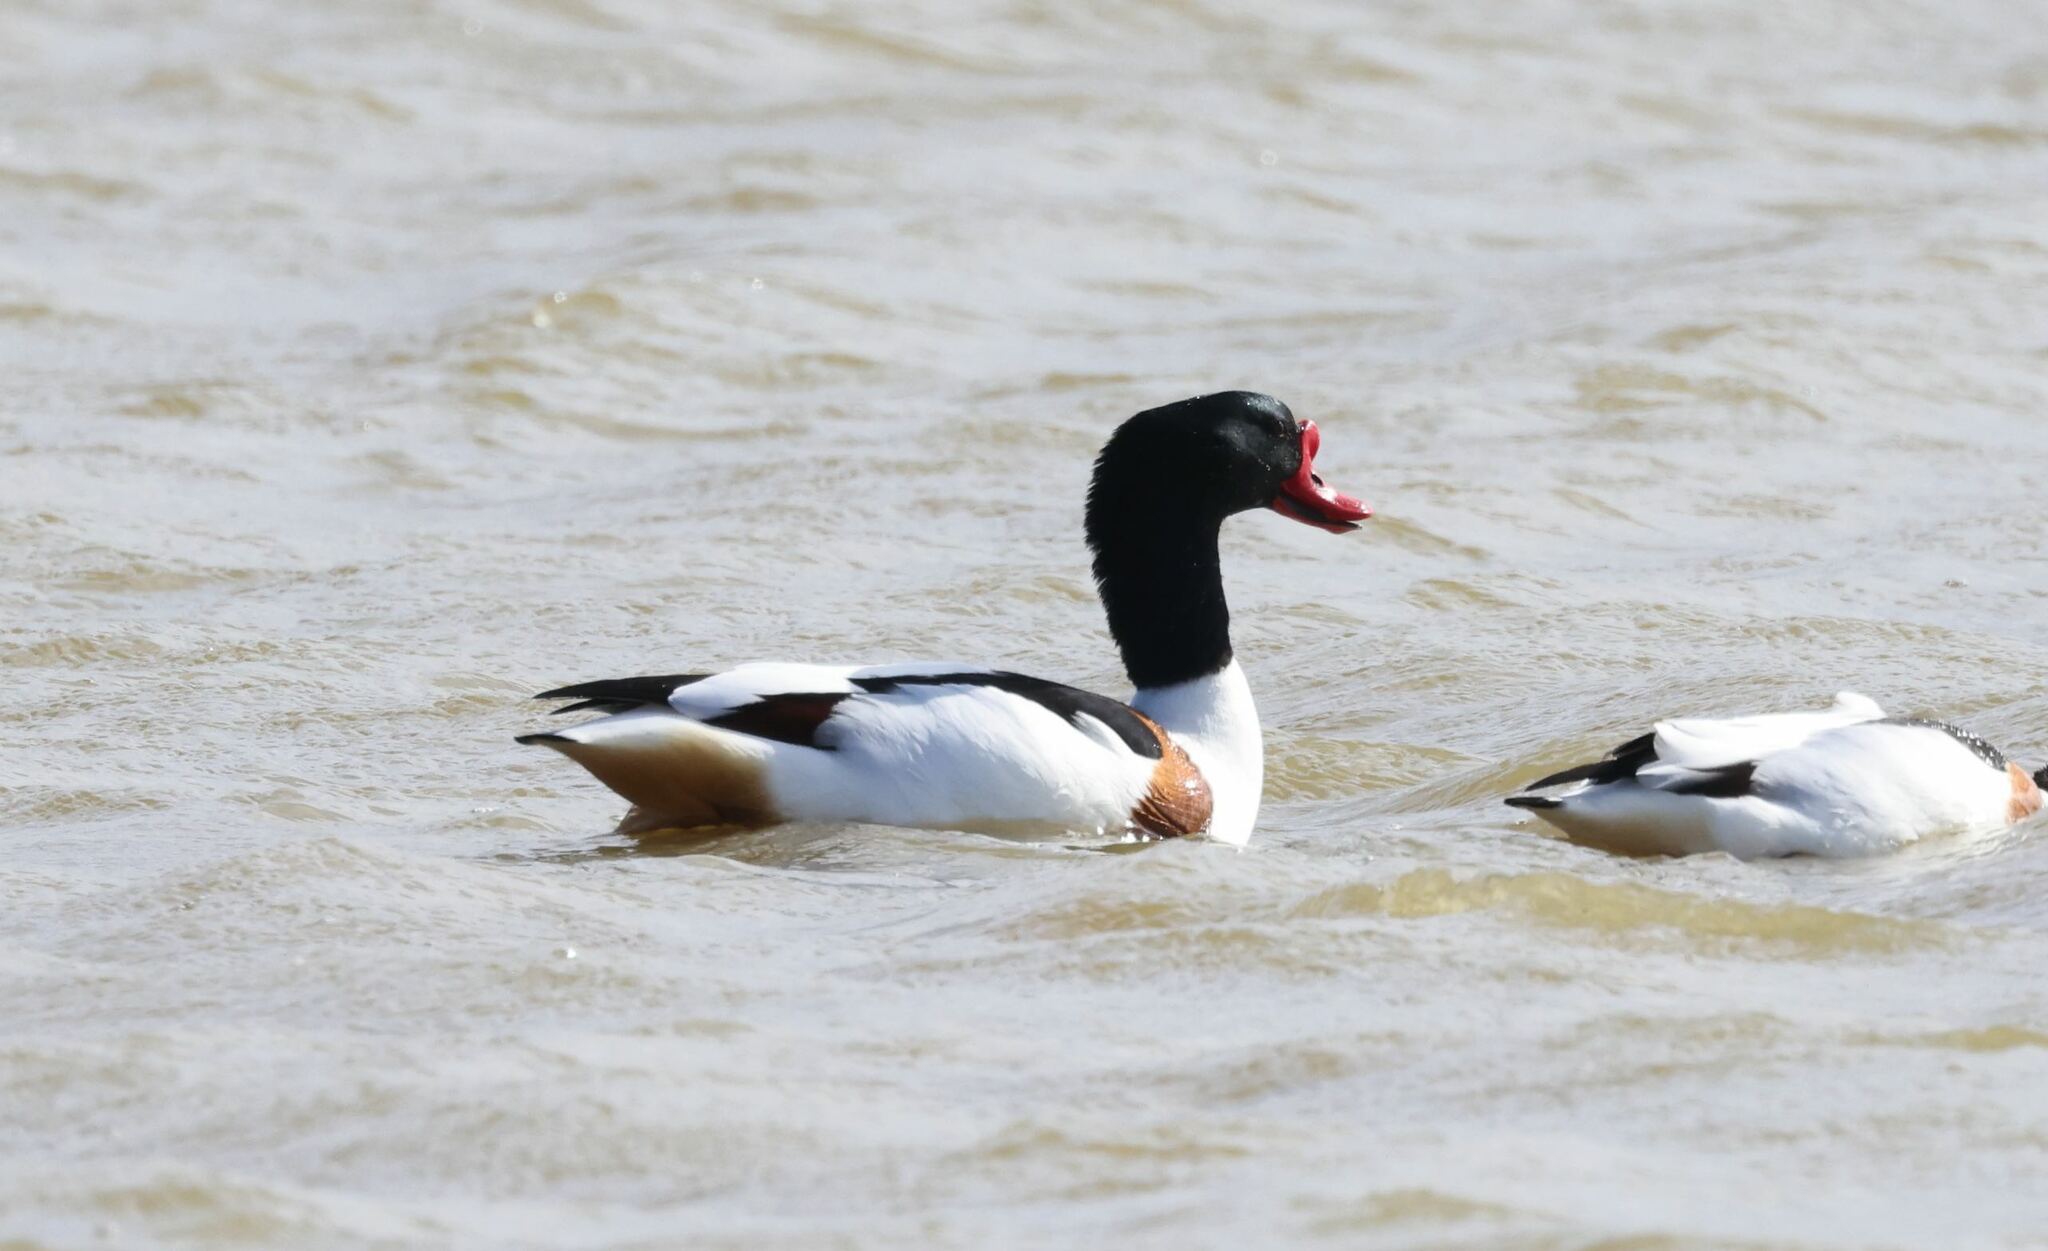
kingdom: Animalia
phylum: Chordata
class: Aves
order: Anseriformes
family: Anatidae
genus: Tadorna
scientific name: Tadorna tadorna
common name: Common shelduck
